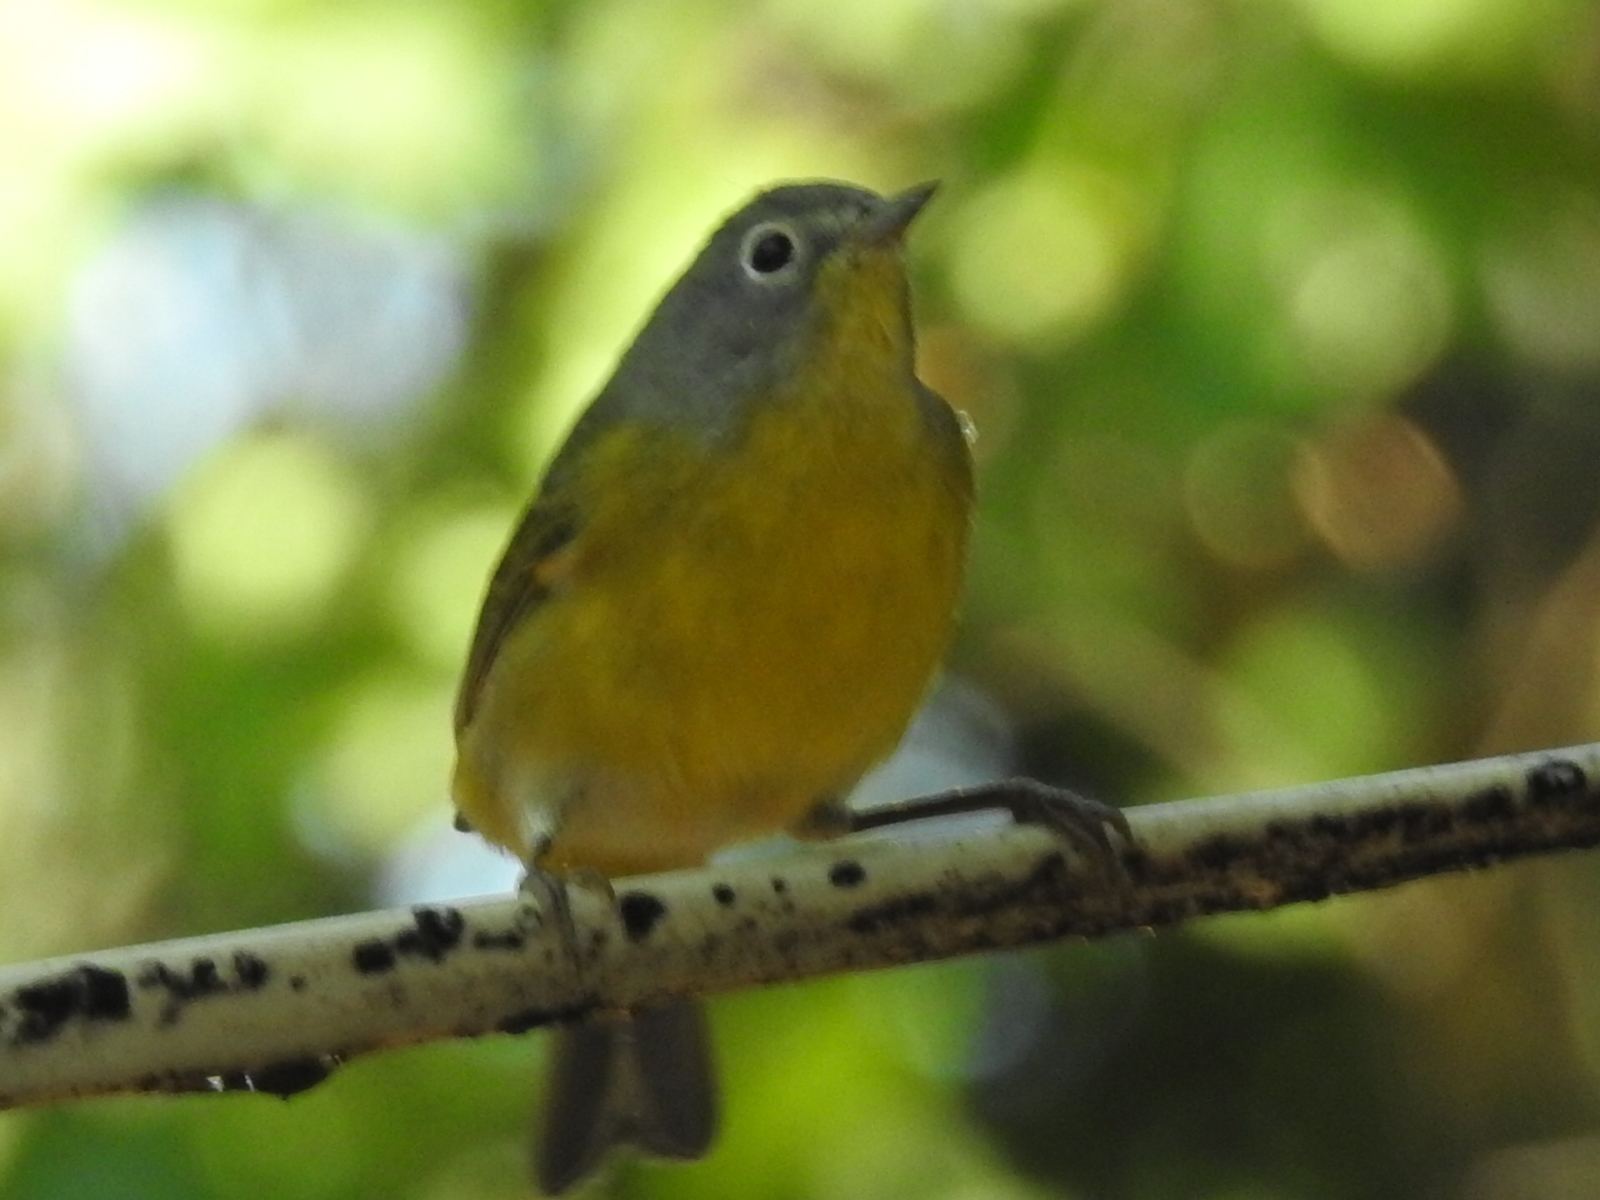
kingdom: Animalia
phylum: Chordata
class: Aves
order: Passeriformes
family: Parulidae
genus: Leiothlypis
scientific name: Leiothlypis ruficapilla
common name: Nashville warbler
